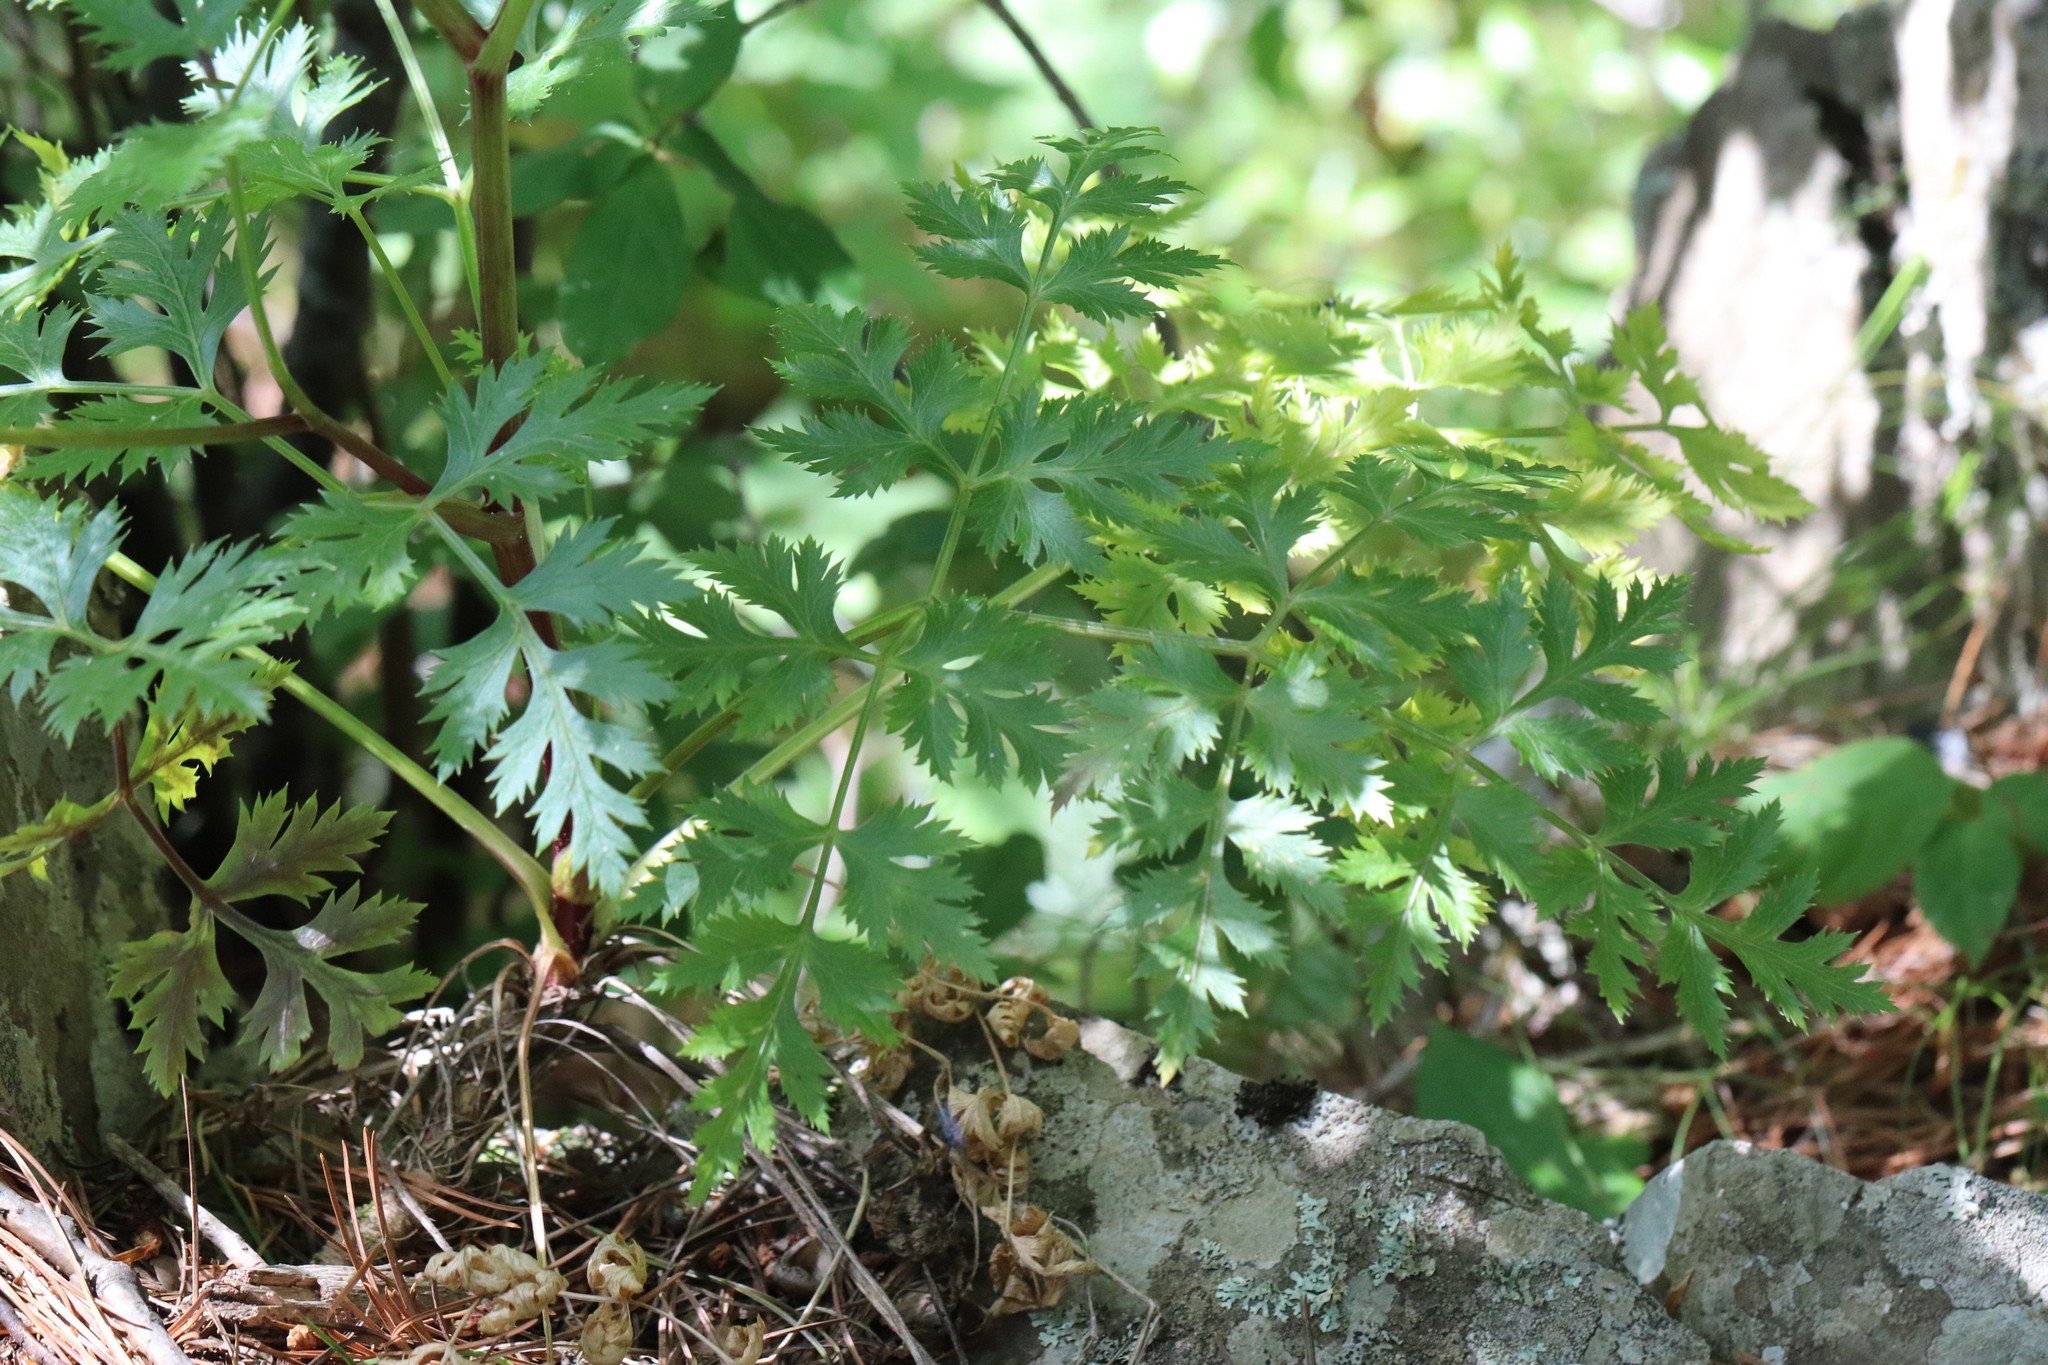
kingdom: Plantae
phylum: Tracheophyta
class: Magnoliopsida
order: Apiales
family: Apiaceae
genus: Kitagawia
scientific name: Kitagawia terebinthacea
